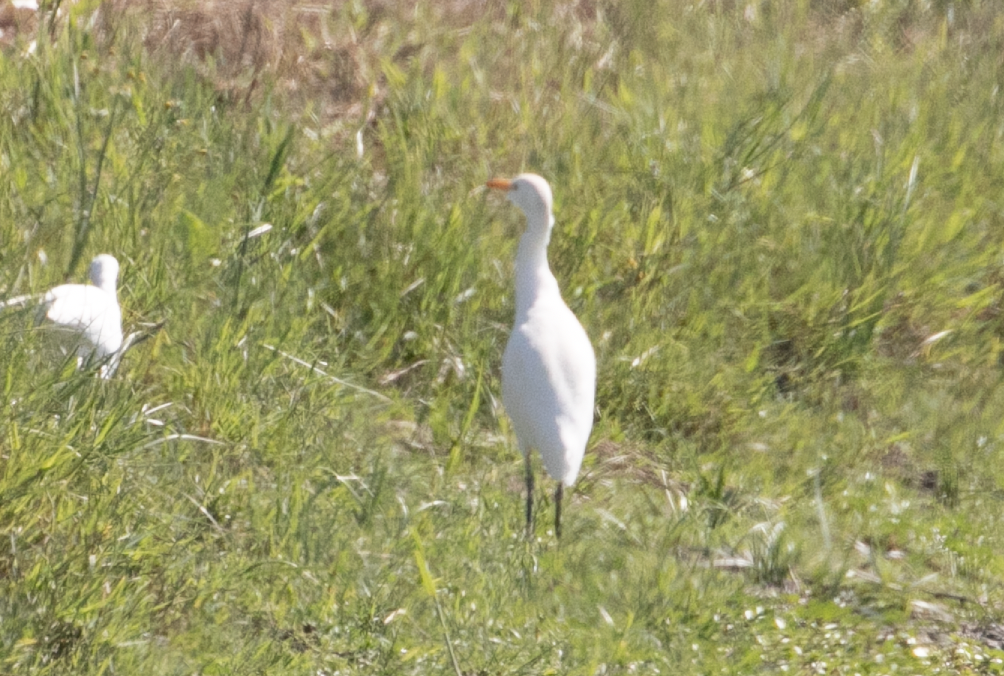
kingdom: Animalia
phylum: Chordata
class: Aves
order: Pelecaniformes
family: Ardeidae
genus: Bubulcus
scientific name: Bubulcus ibis
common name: Cattle egret
